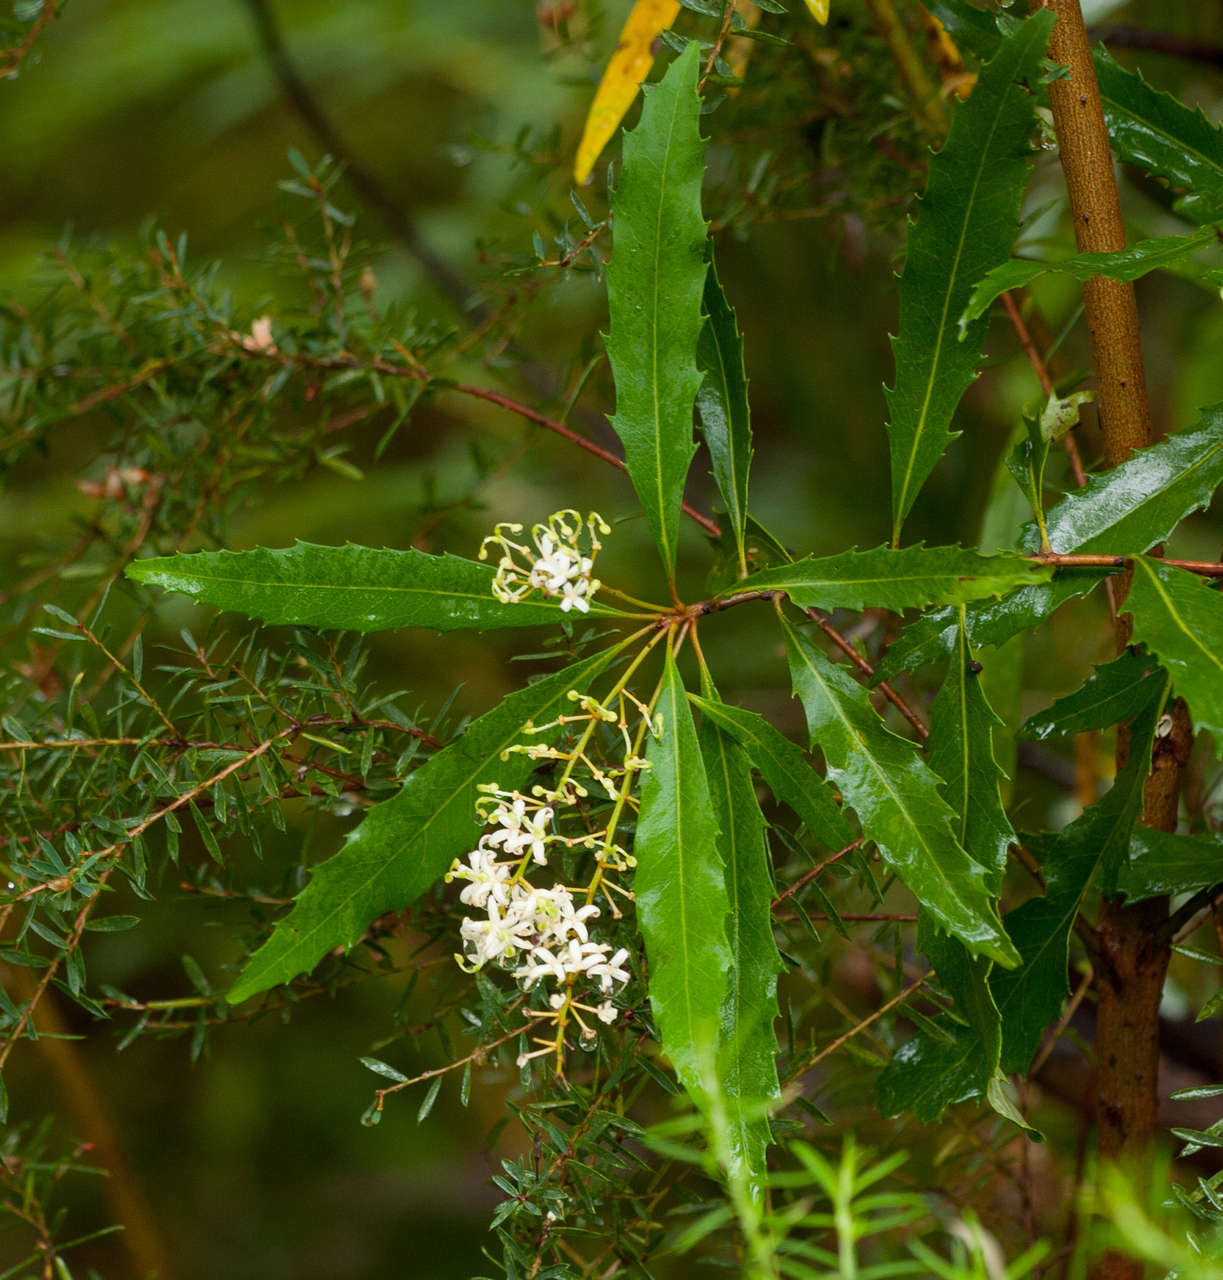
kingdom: Plantae
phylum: Tracheophyta
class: Magnoliopsida
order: Proteales
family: Proteaceae
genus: Lomatia
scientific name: Lomatia fraseri
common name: Forest lomatia
